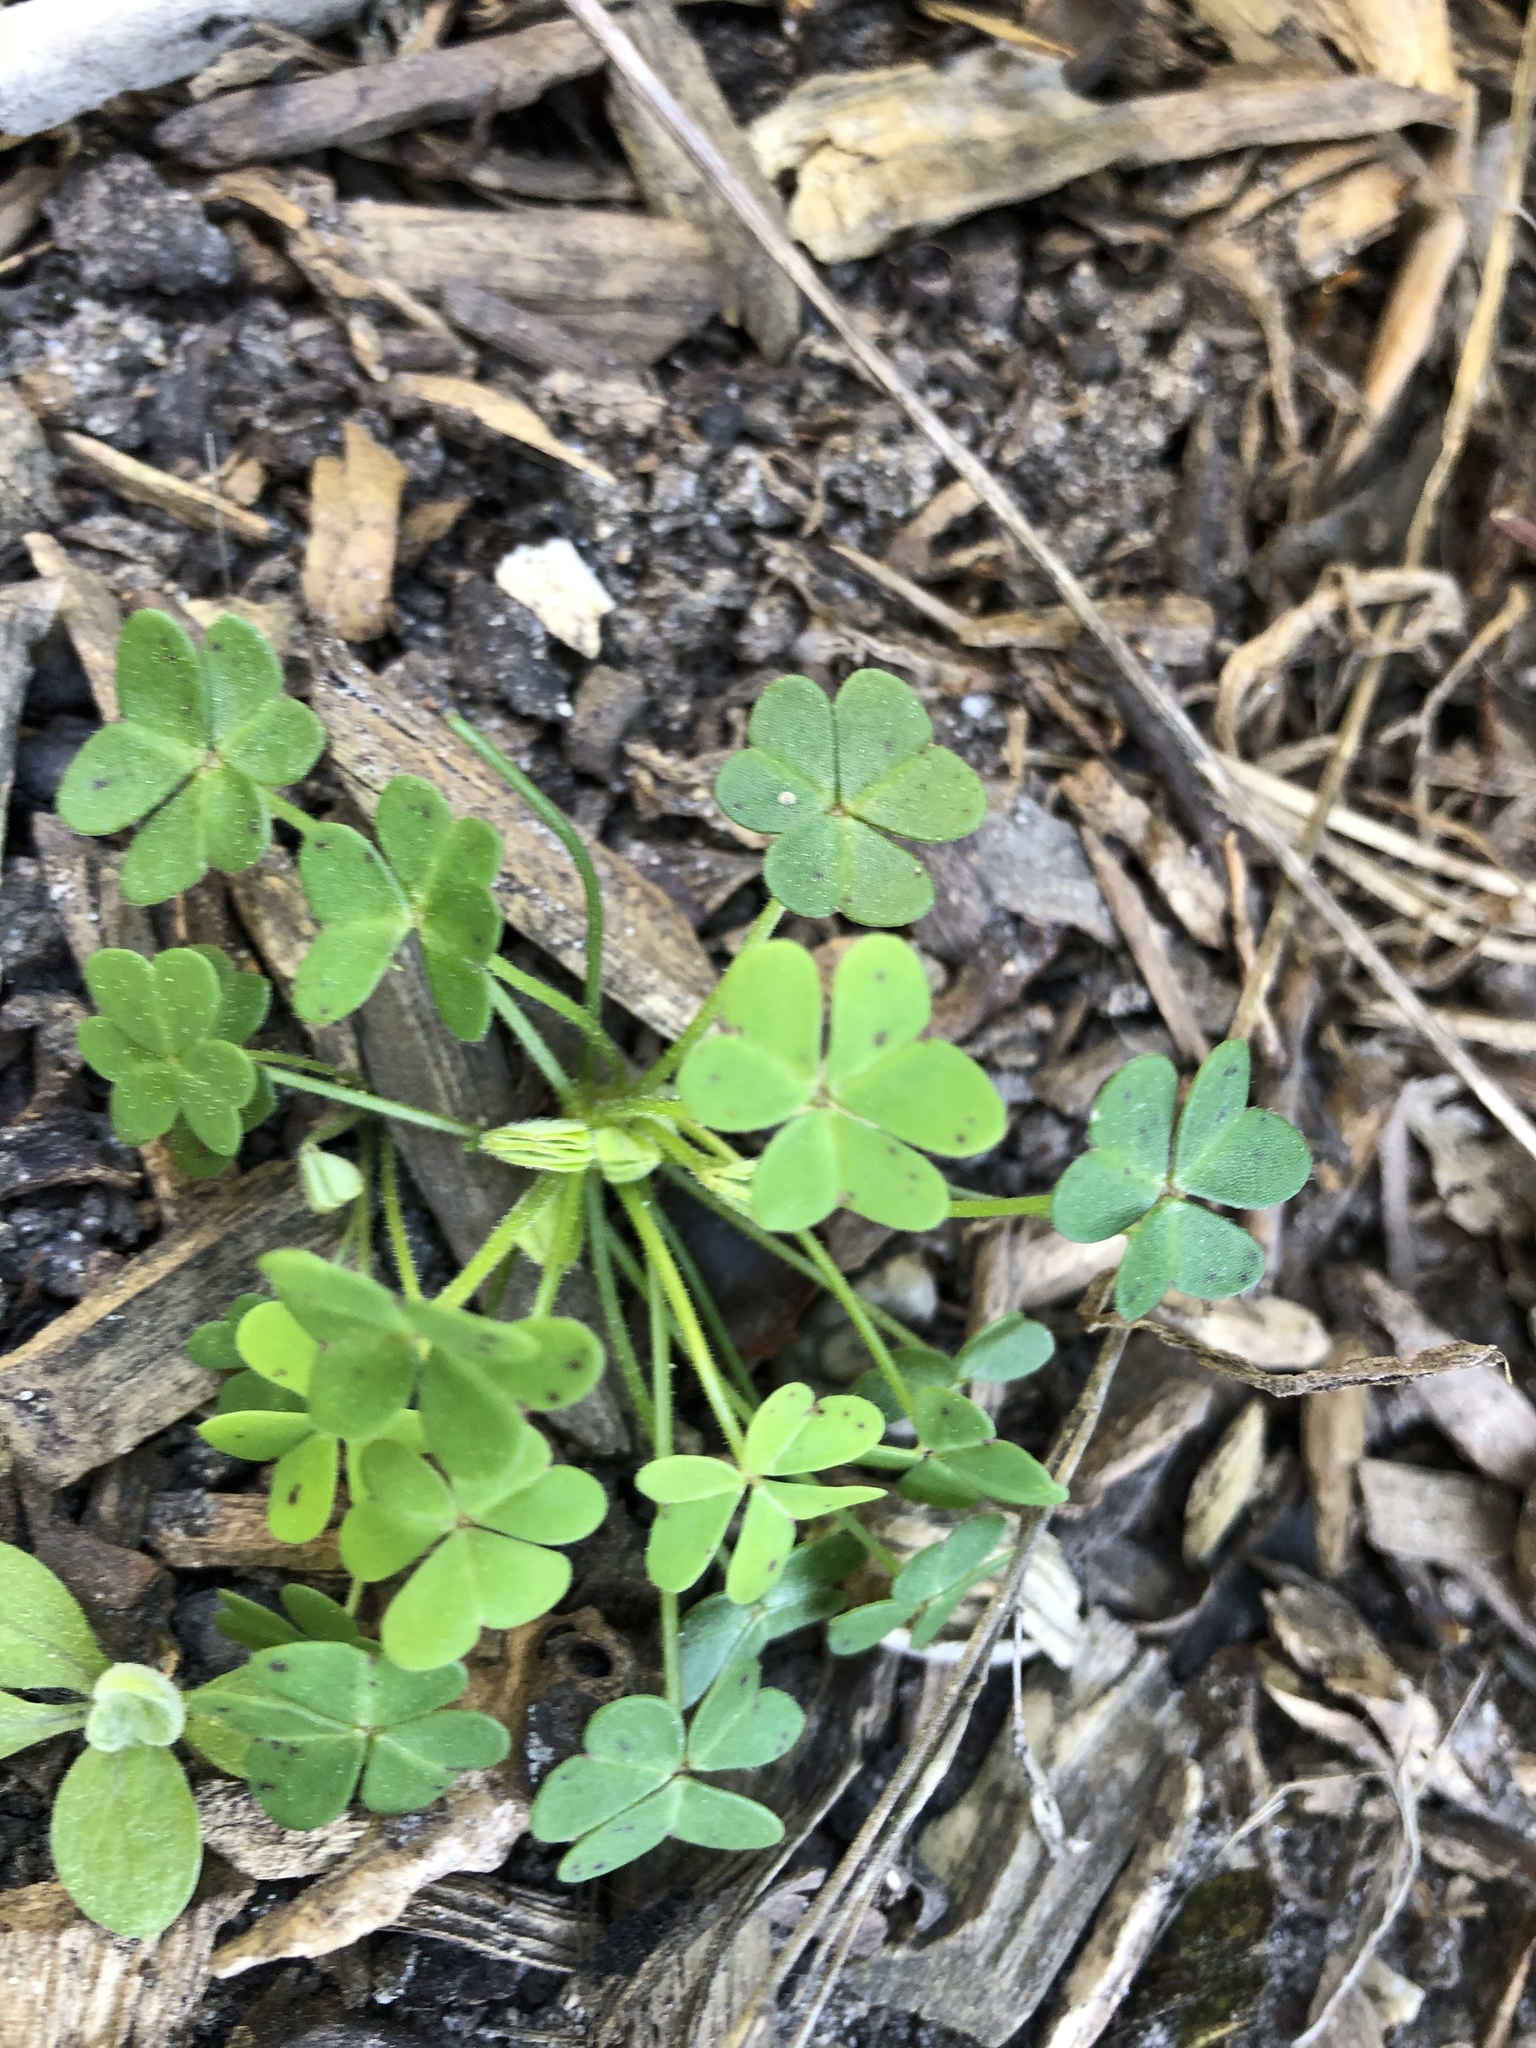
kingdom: Plantae
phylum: Tracheophyta
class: Magnoliopsida
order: Oxalidales
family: Oxalidaceae
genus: Oxalis
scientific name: Oxalis pes-caprae
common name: Bermuda-buttercup
